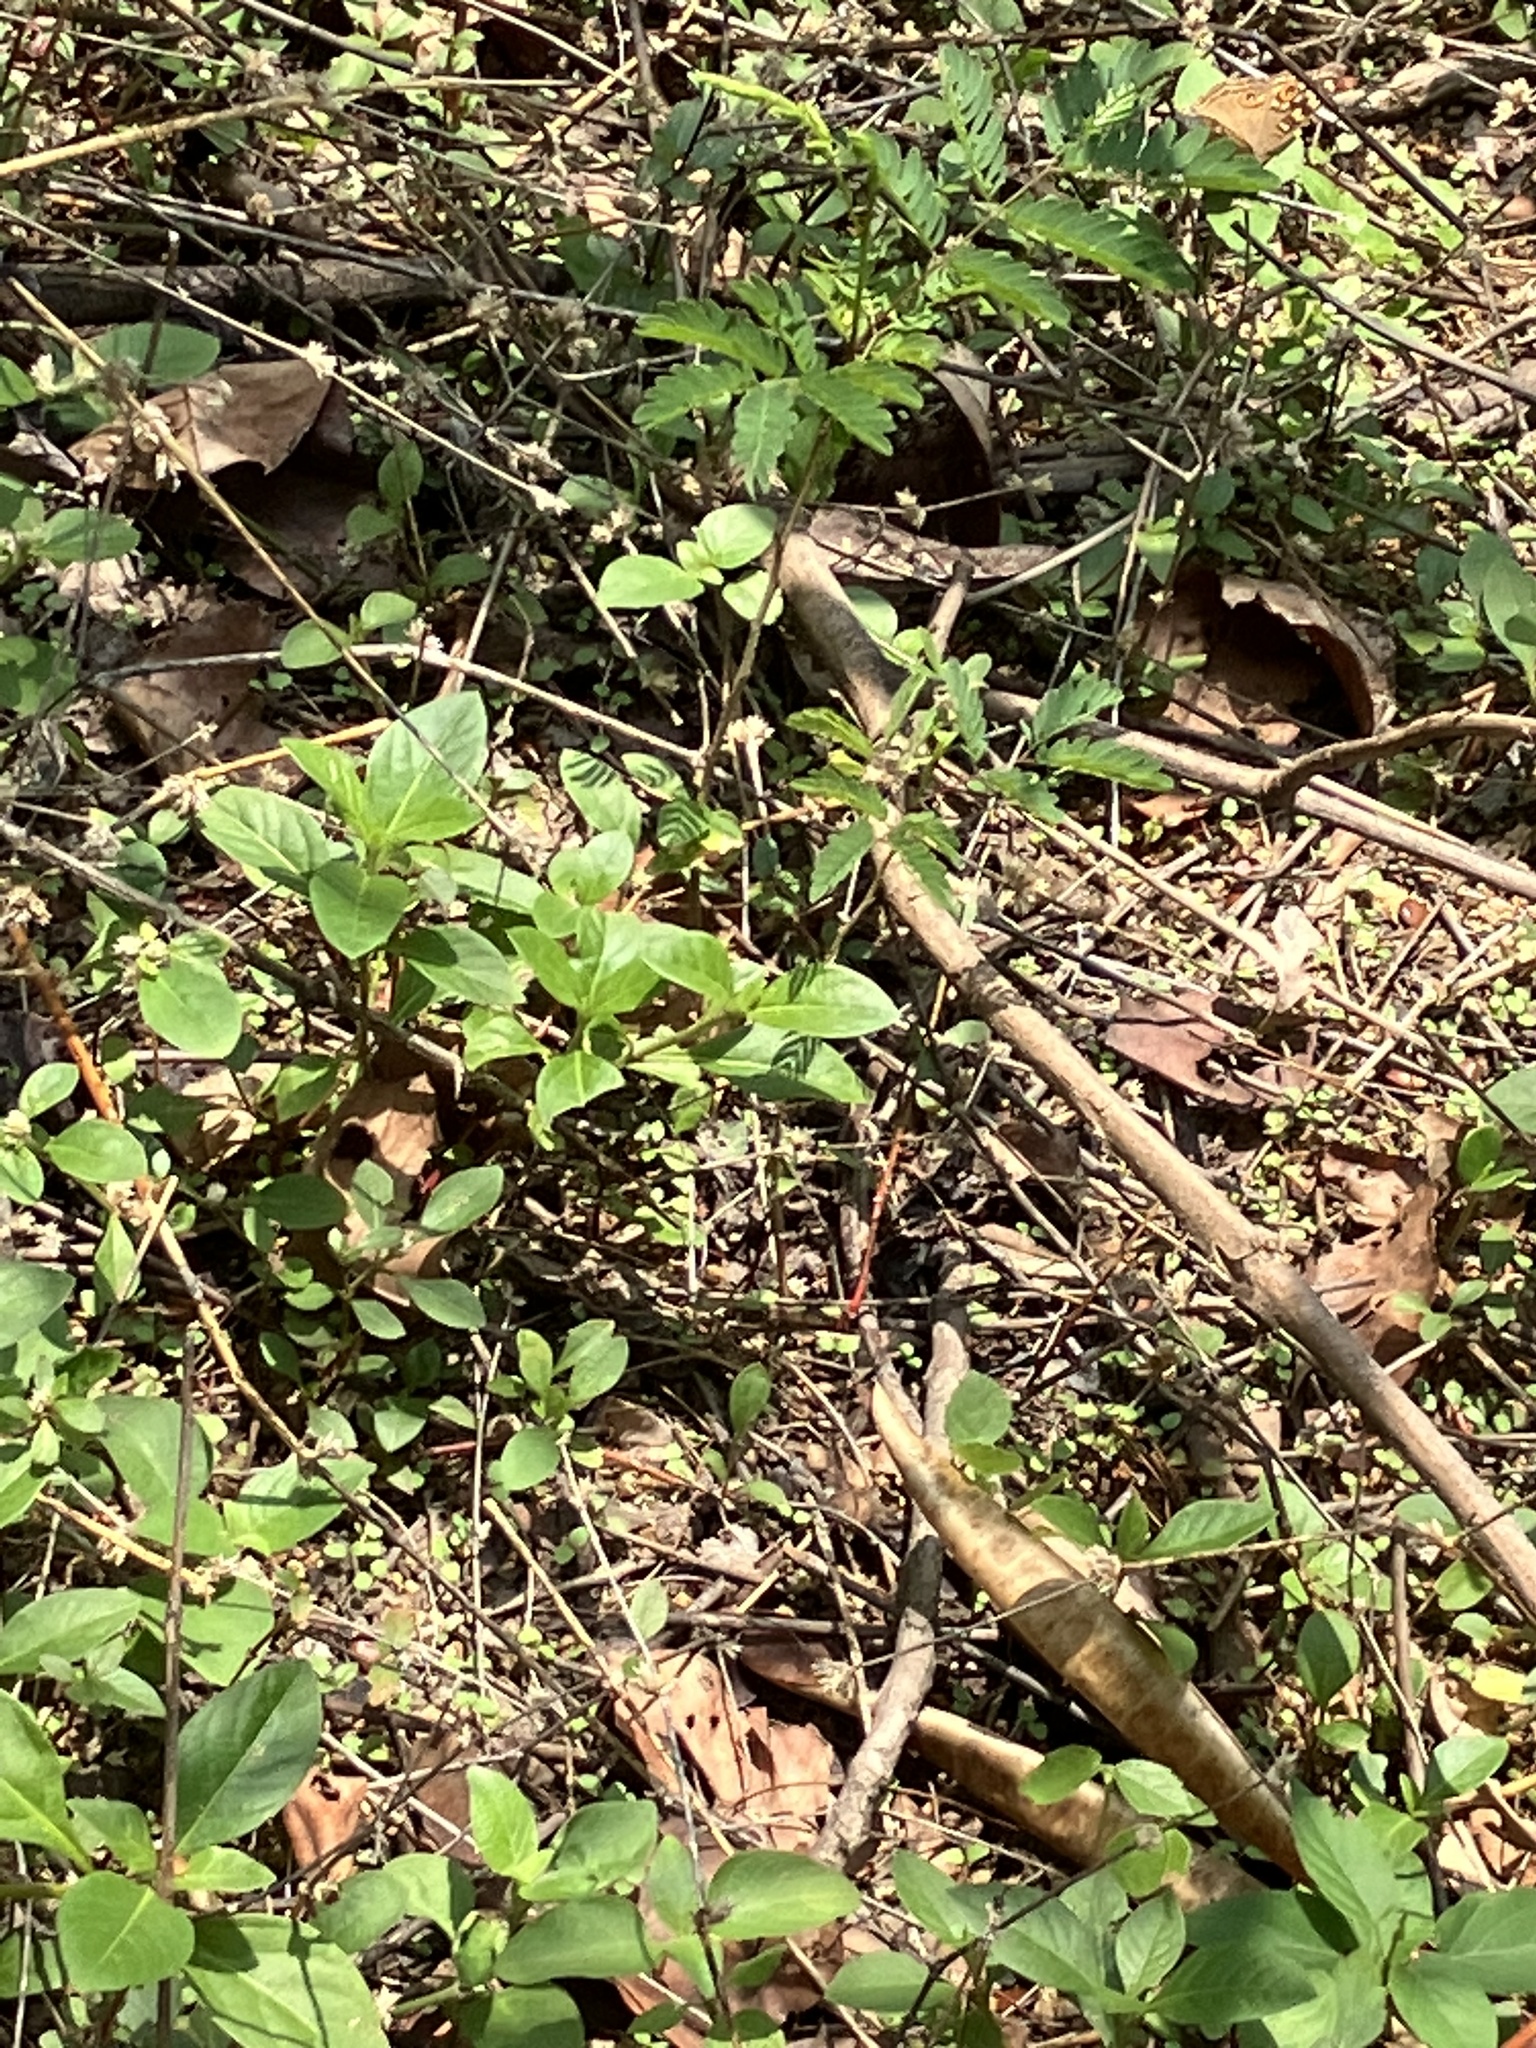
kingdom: Animalia
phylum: Arthropoda
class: Insecta
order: Lepidoptera
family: Nymphalidae
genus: Junonia
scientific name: Junonia lemonias
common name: Lemon pansy
